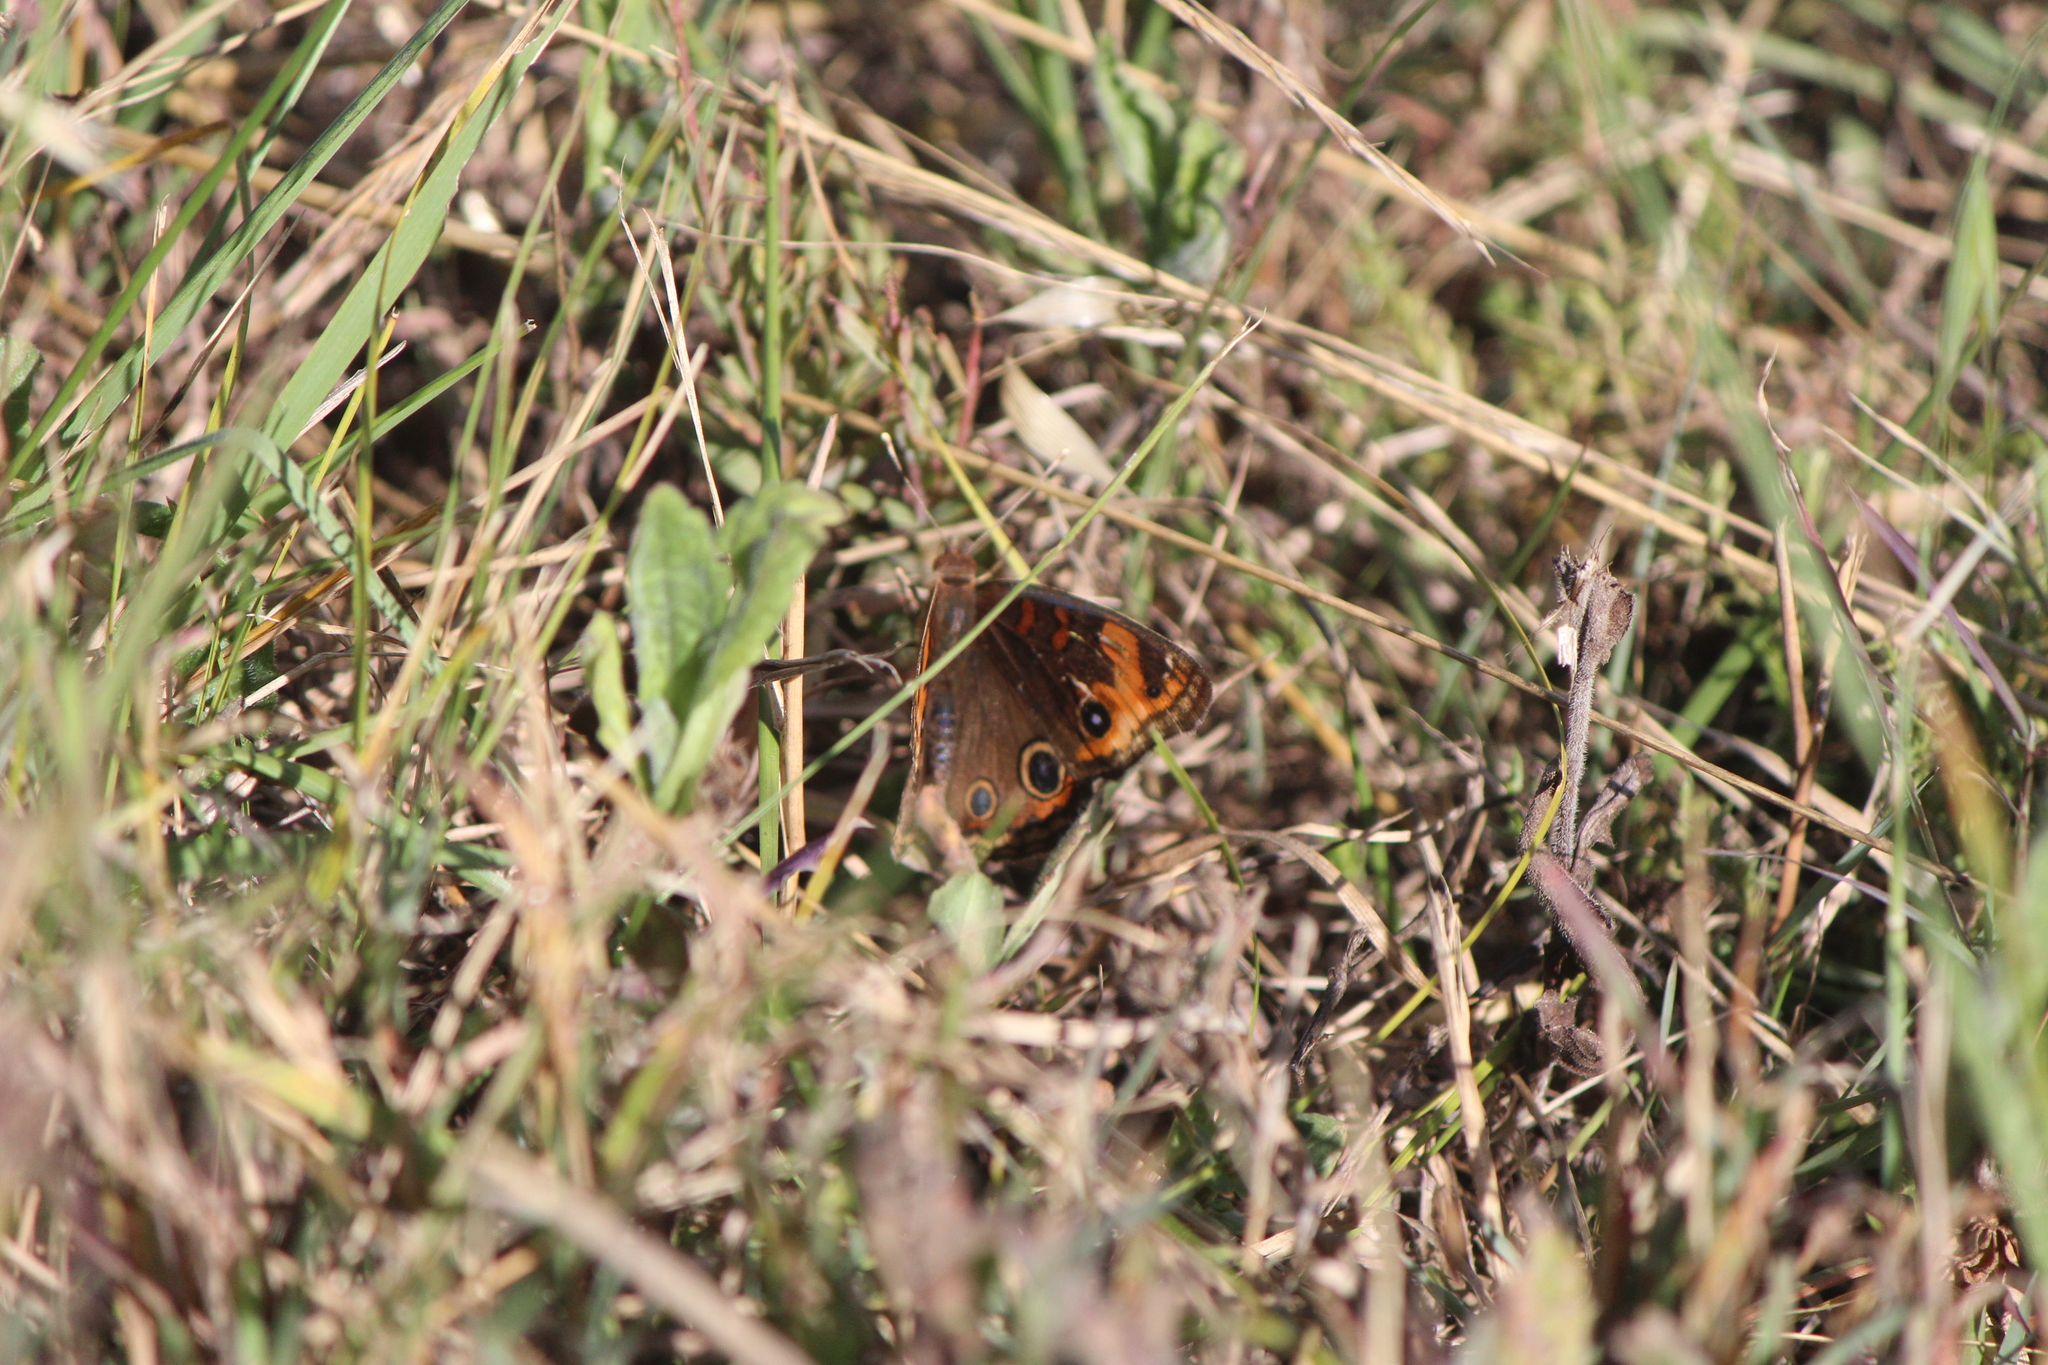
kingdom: Animalia
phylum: Arthropoda
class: Insecta
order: Lepidoptera
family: Nymphalidae
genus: Junonia
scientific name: Junonia lavinia
